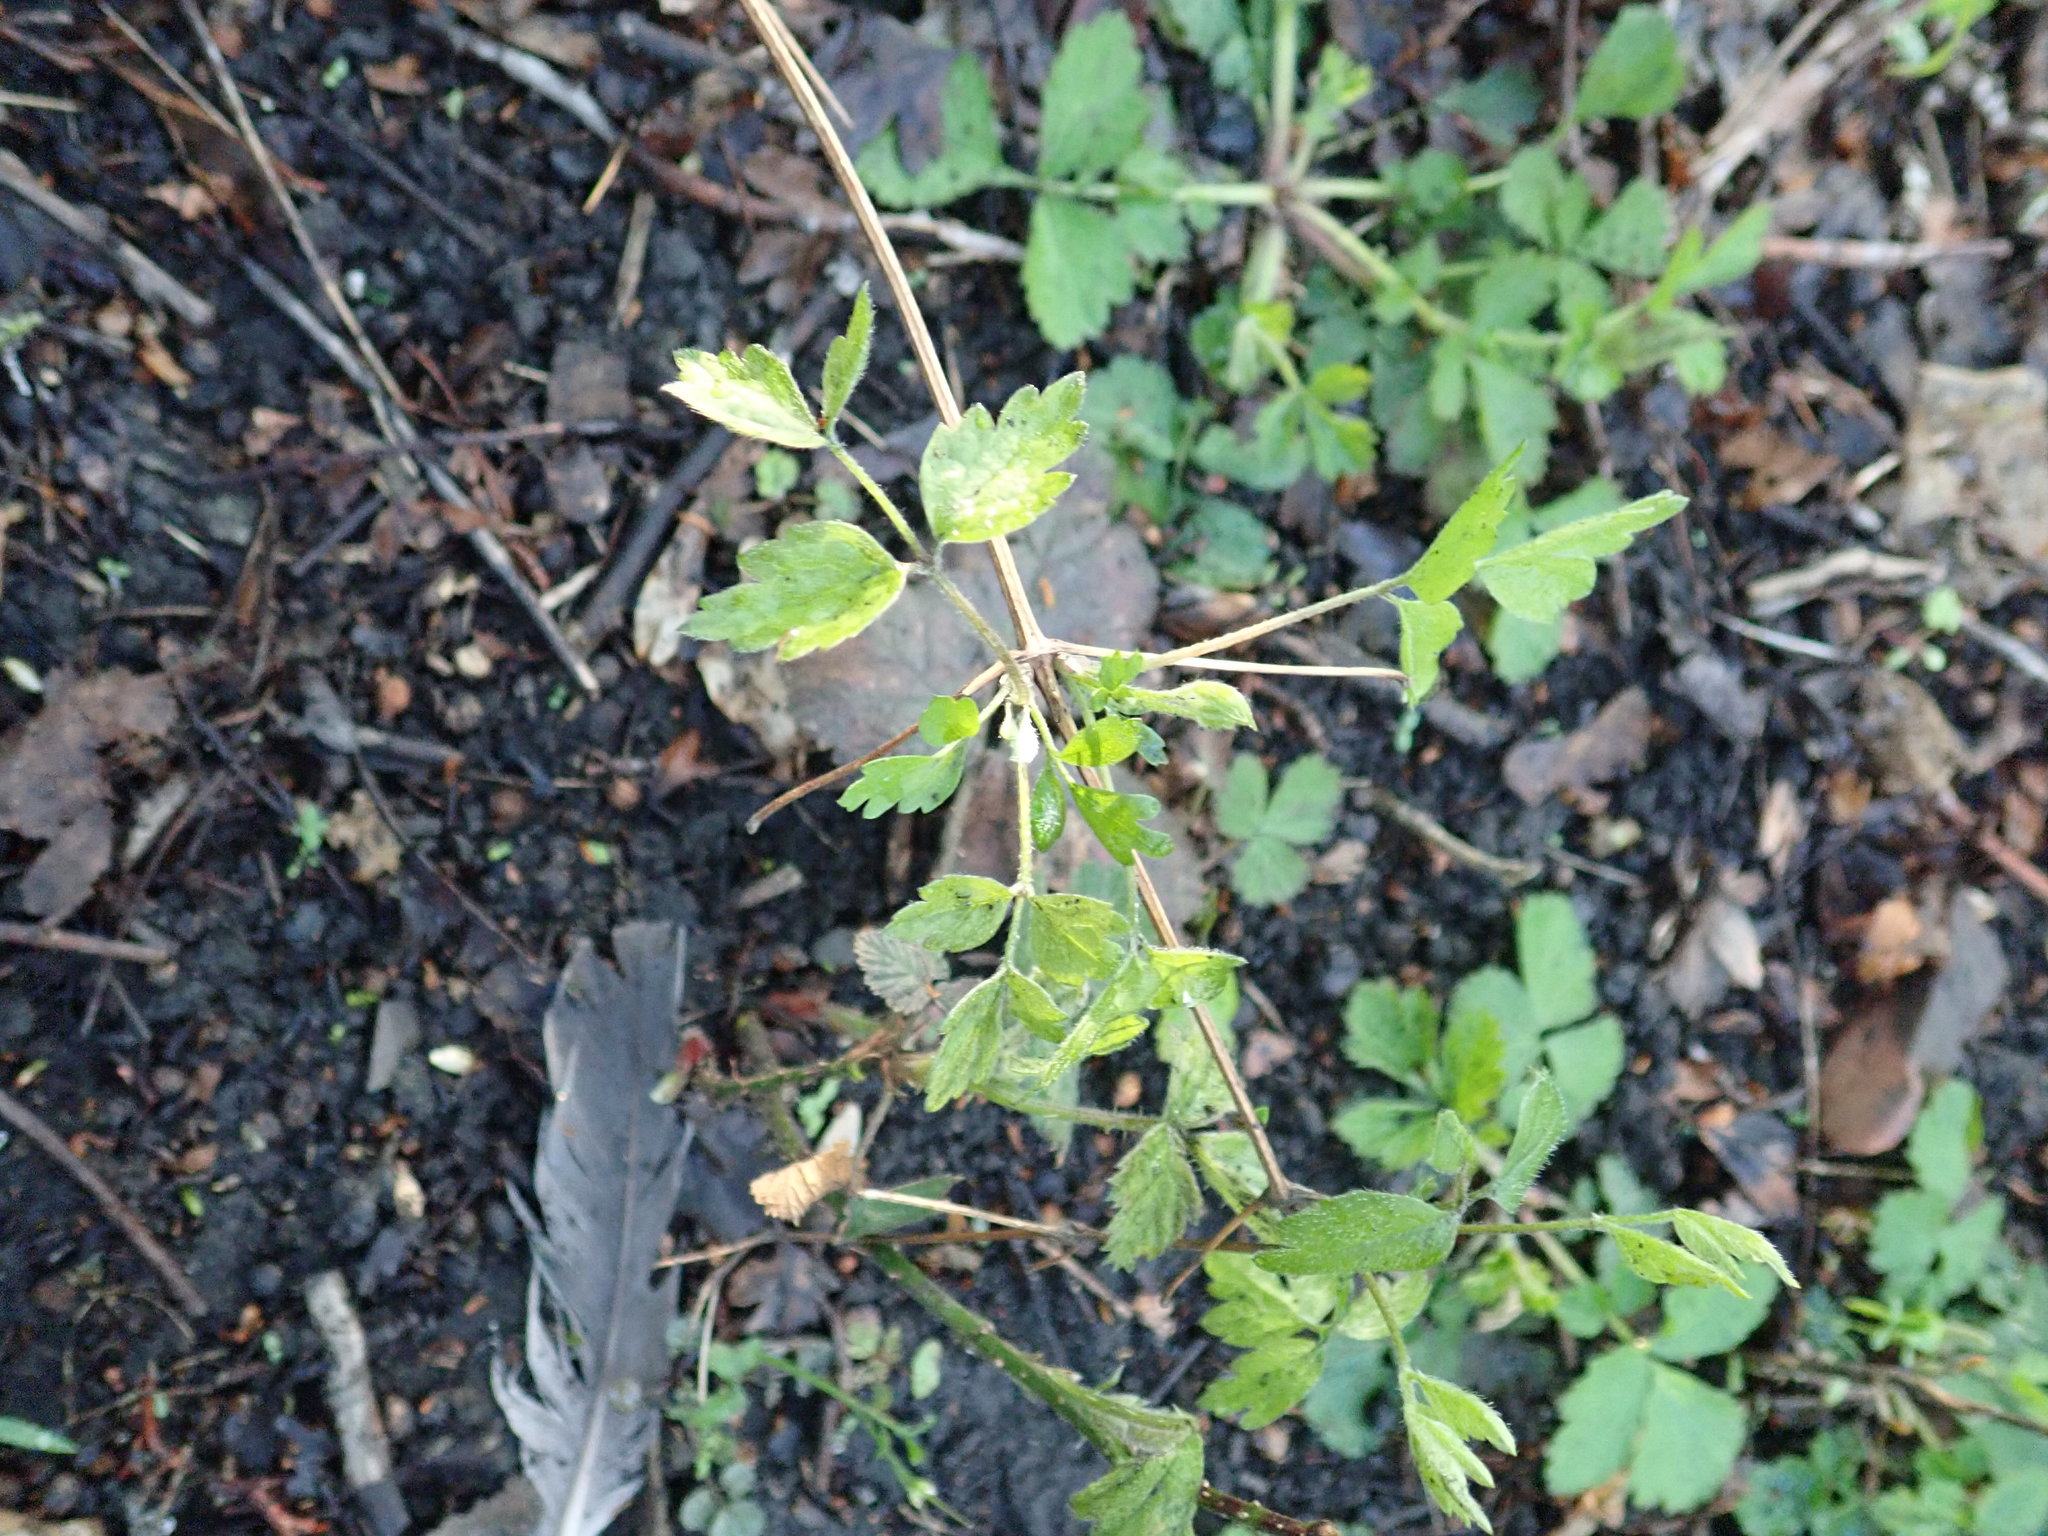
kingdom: Plantae
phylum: Tracheophyta
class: Magnoliopsida
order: Ranunculales
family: Ranunculaceae
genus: Clematis
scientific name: Clematis vitalba
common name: Evergreen clematis
